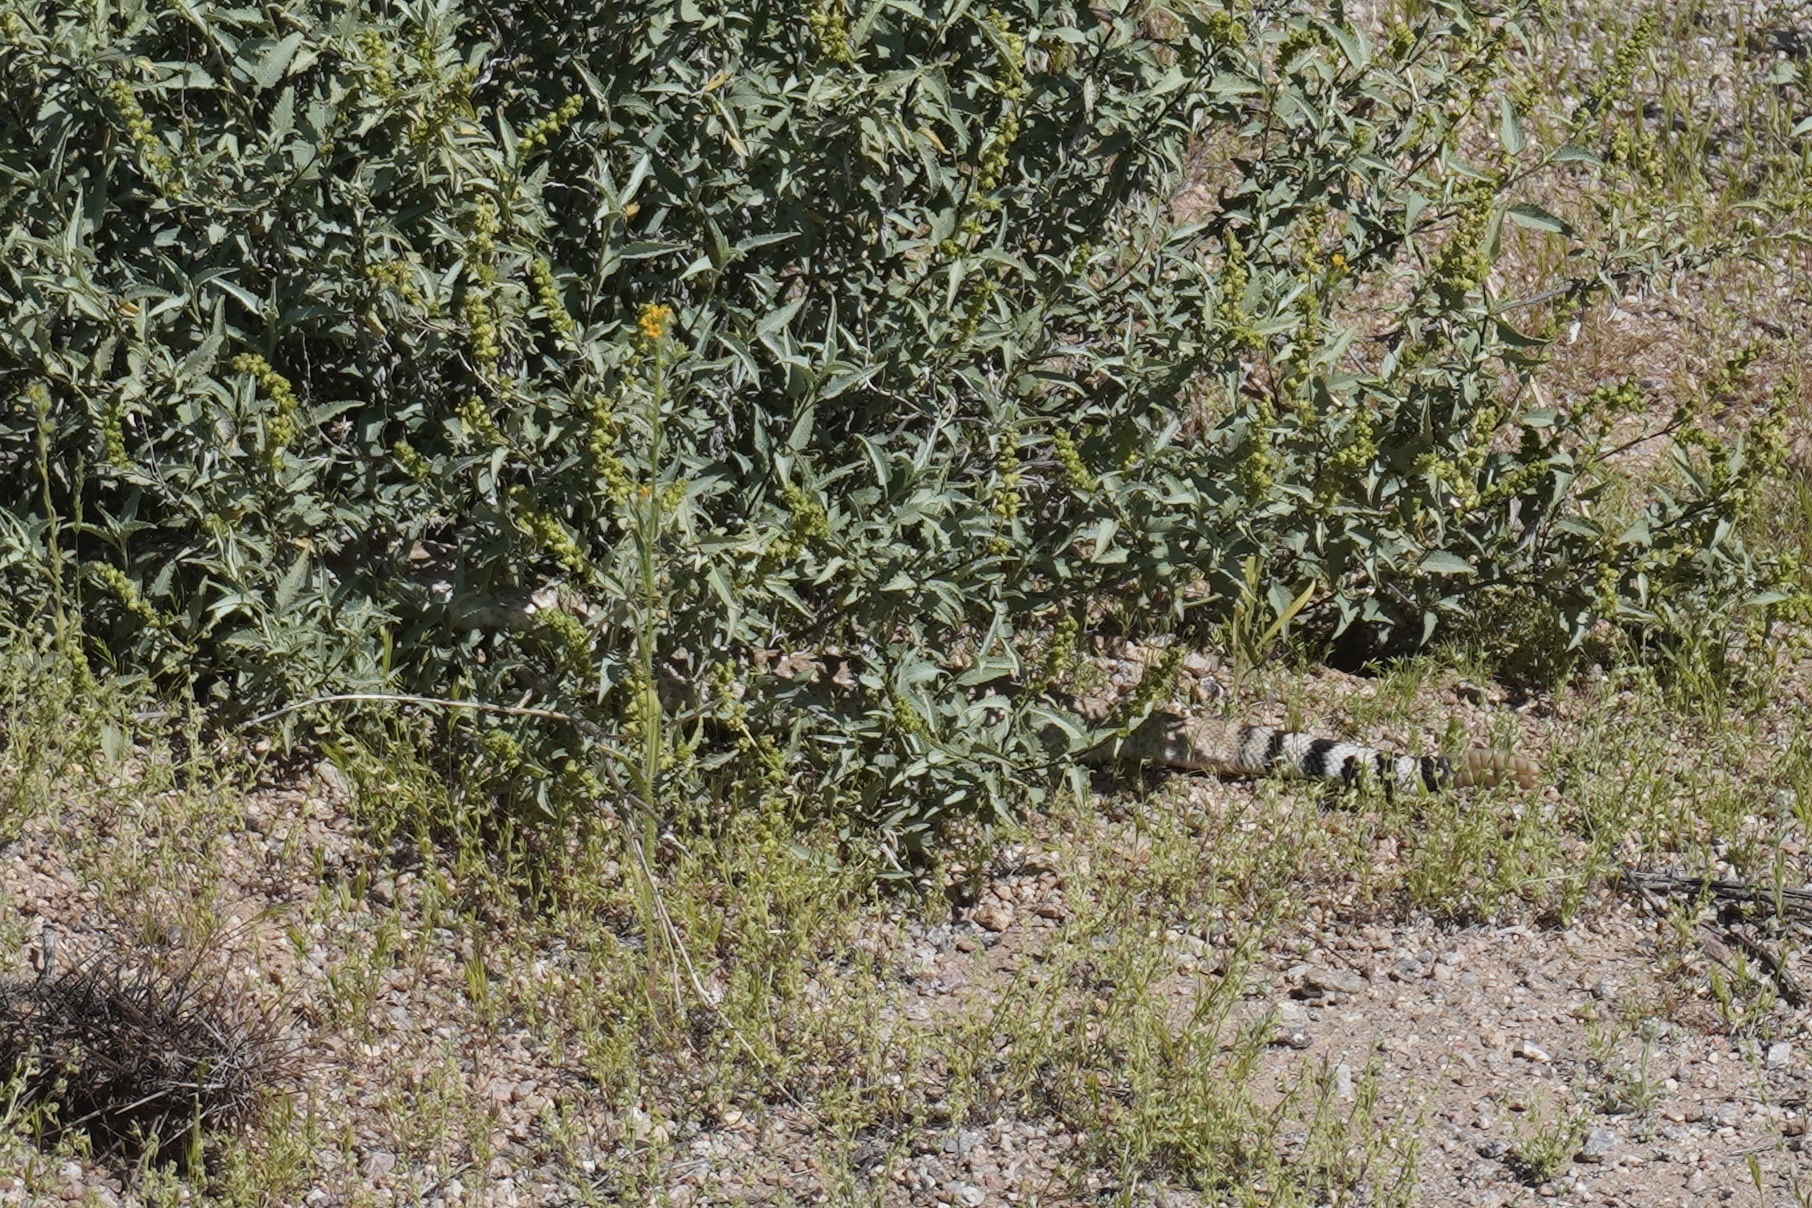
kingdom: Animalia
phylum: Chordata
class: Squamata
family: Viperidae
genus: Crotalus
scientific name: Crotalus atrox
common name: Western diamond-backed rattlesnake
